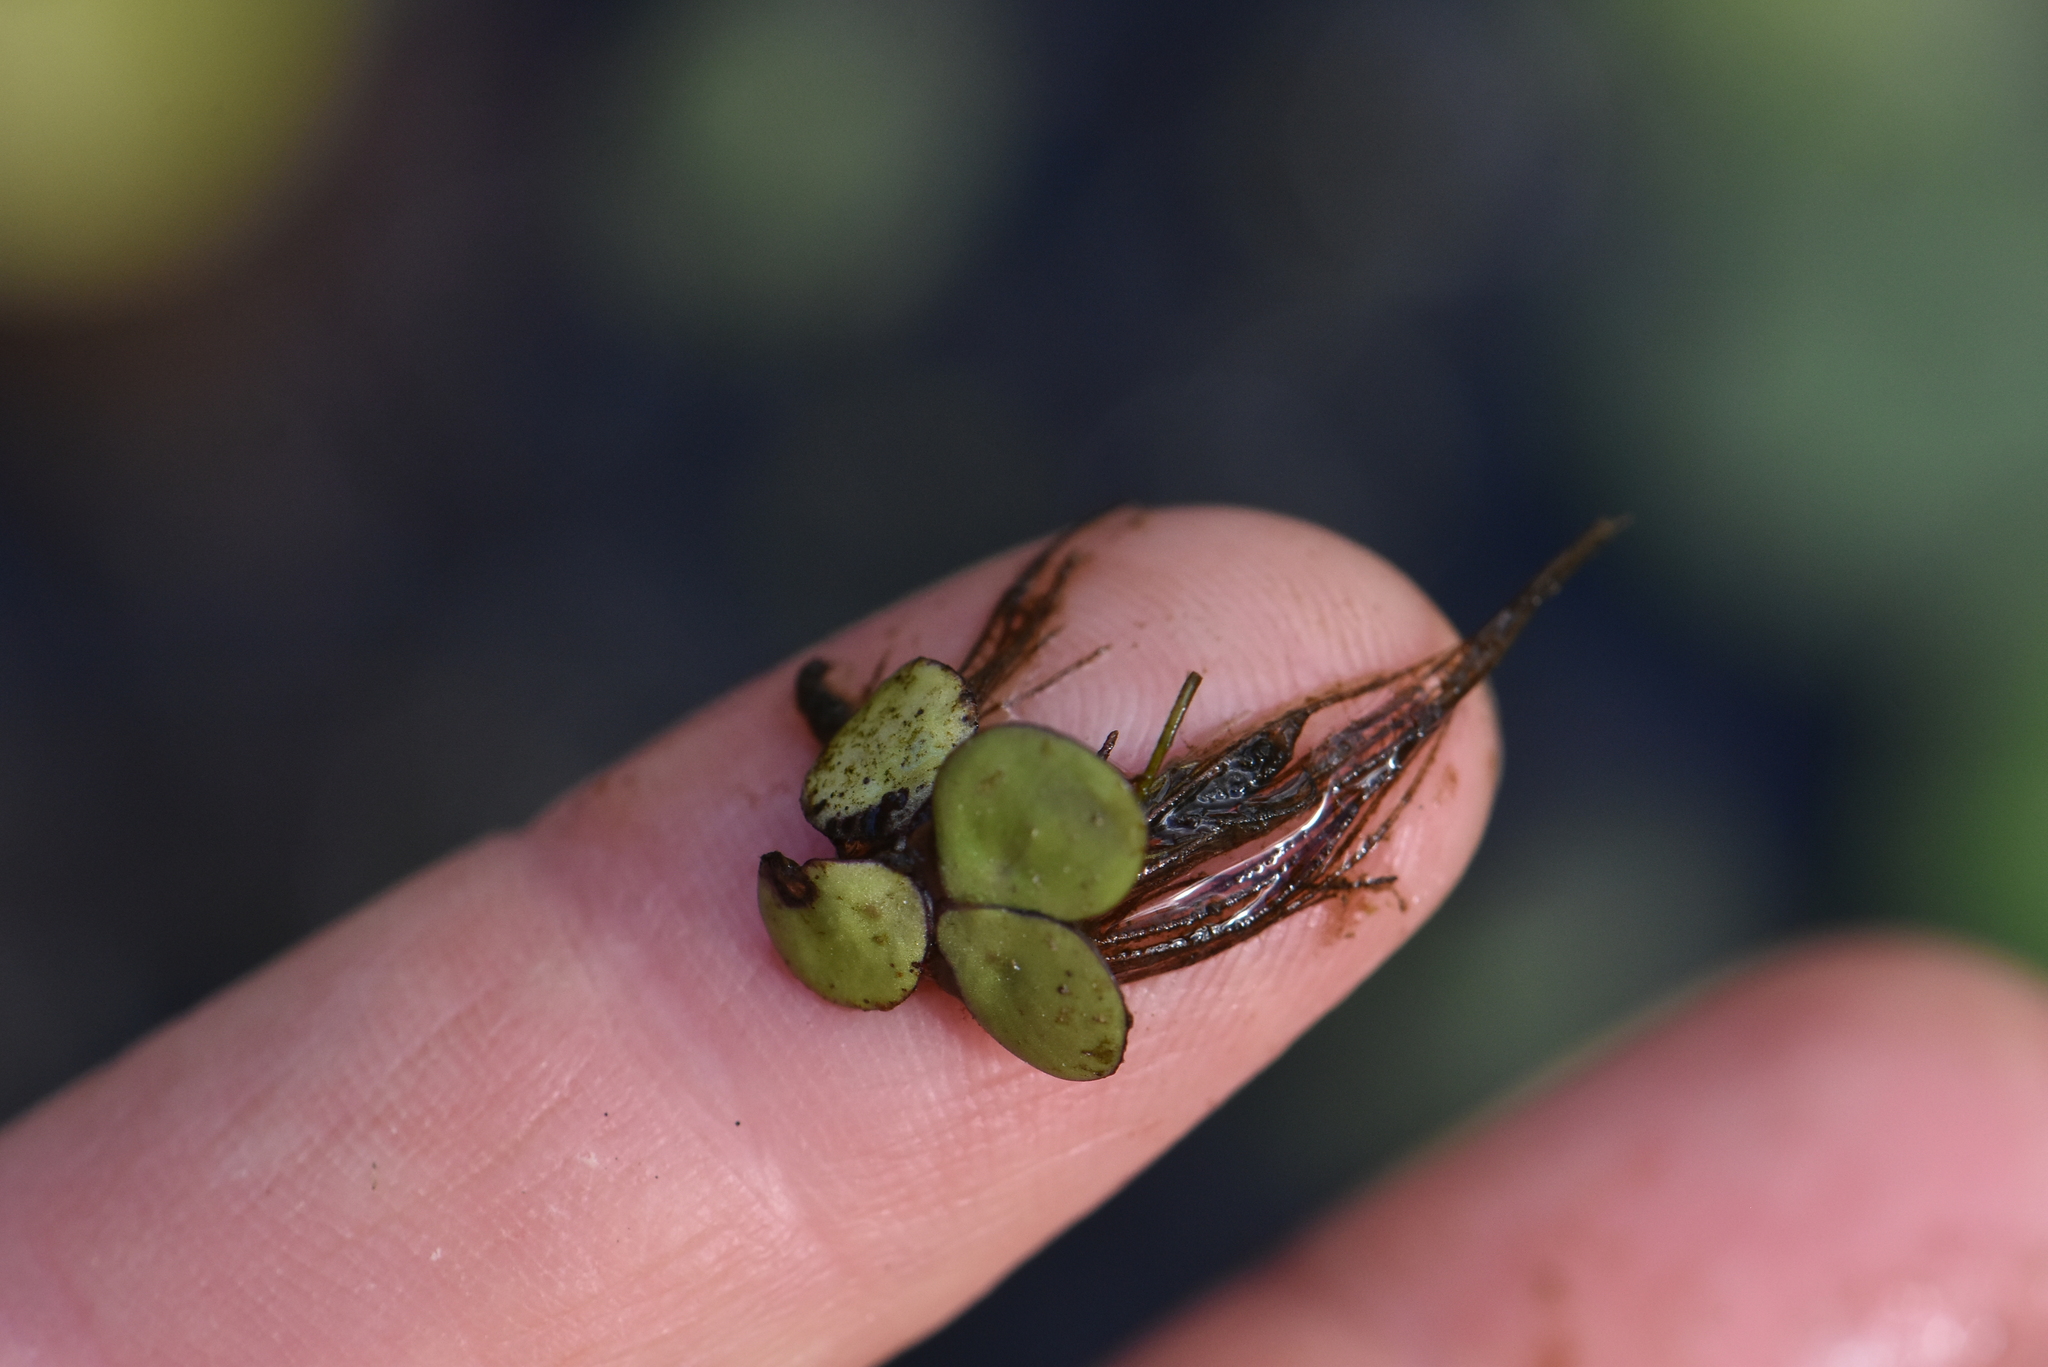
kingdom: Plantae
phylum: Tracheophyta
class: Liliopsida
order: Alismatales
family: Araceae
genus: Spirodela
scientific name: Spirodela polyrhiza
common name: Great duckweed
